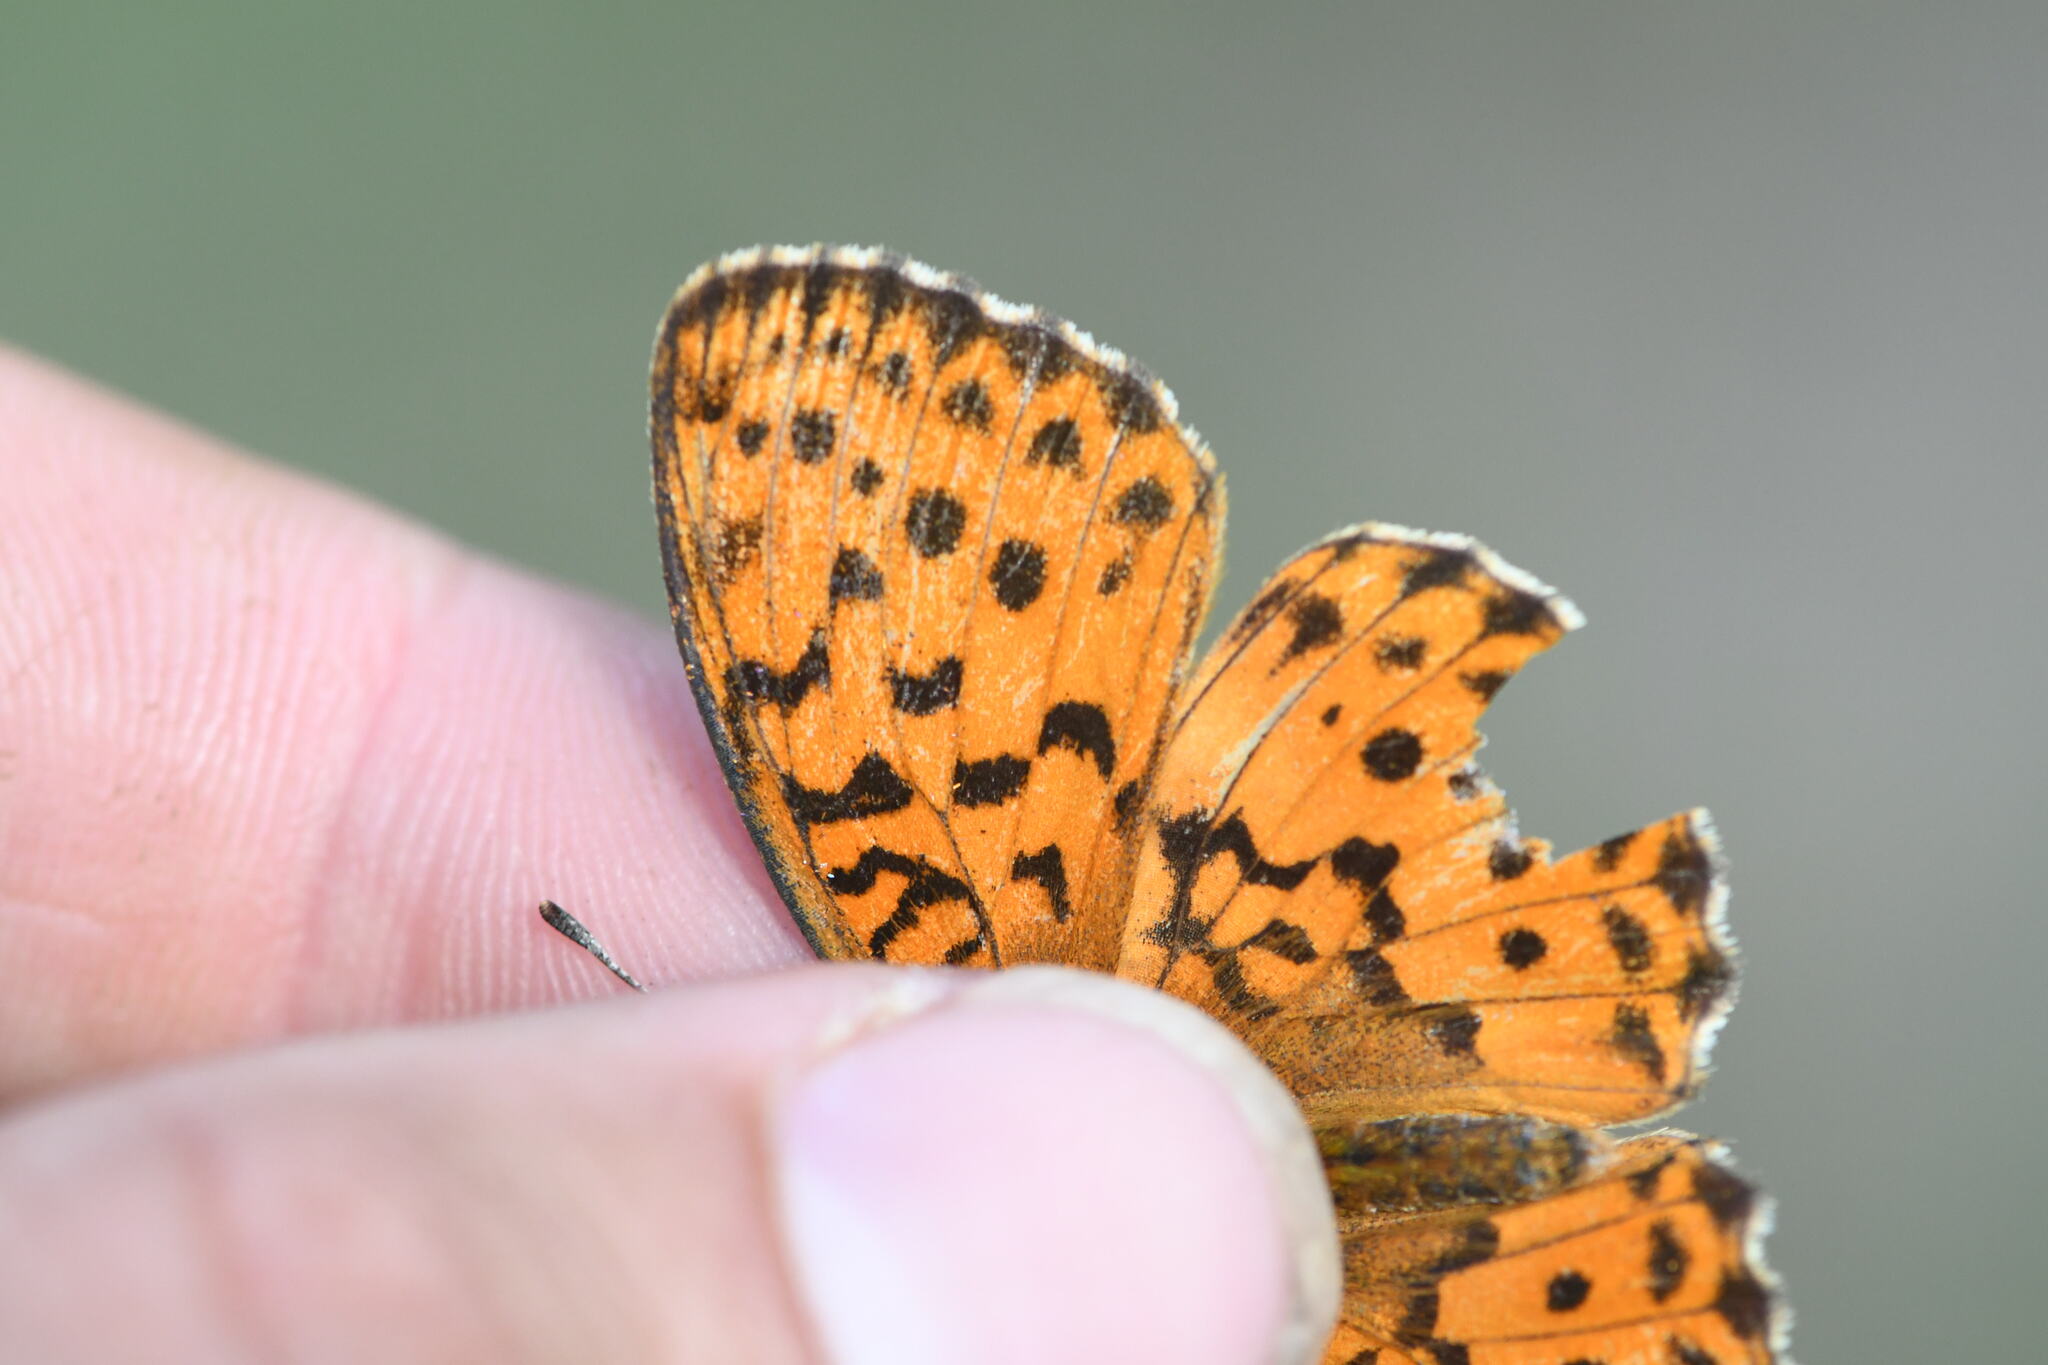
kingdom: Animalia
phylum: Arthropoda
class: Insecta
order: Lepidoptera
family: Nymphalidae
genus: Brenthis
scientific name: Brenthis daphne
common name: Marbled fritillary
